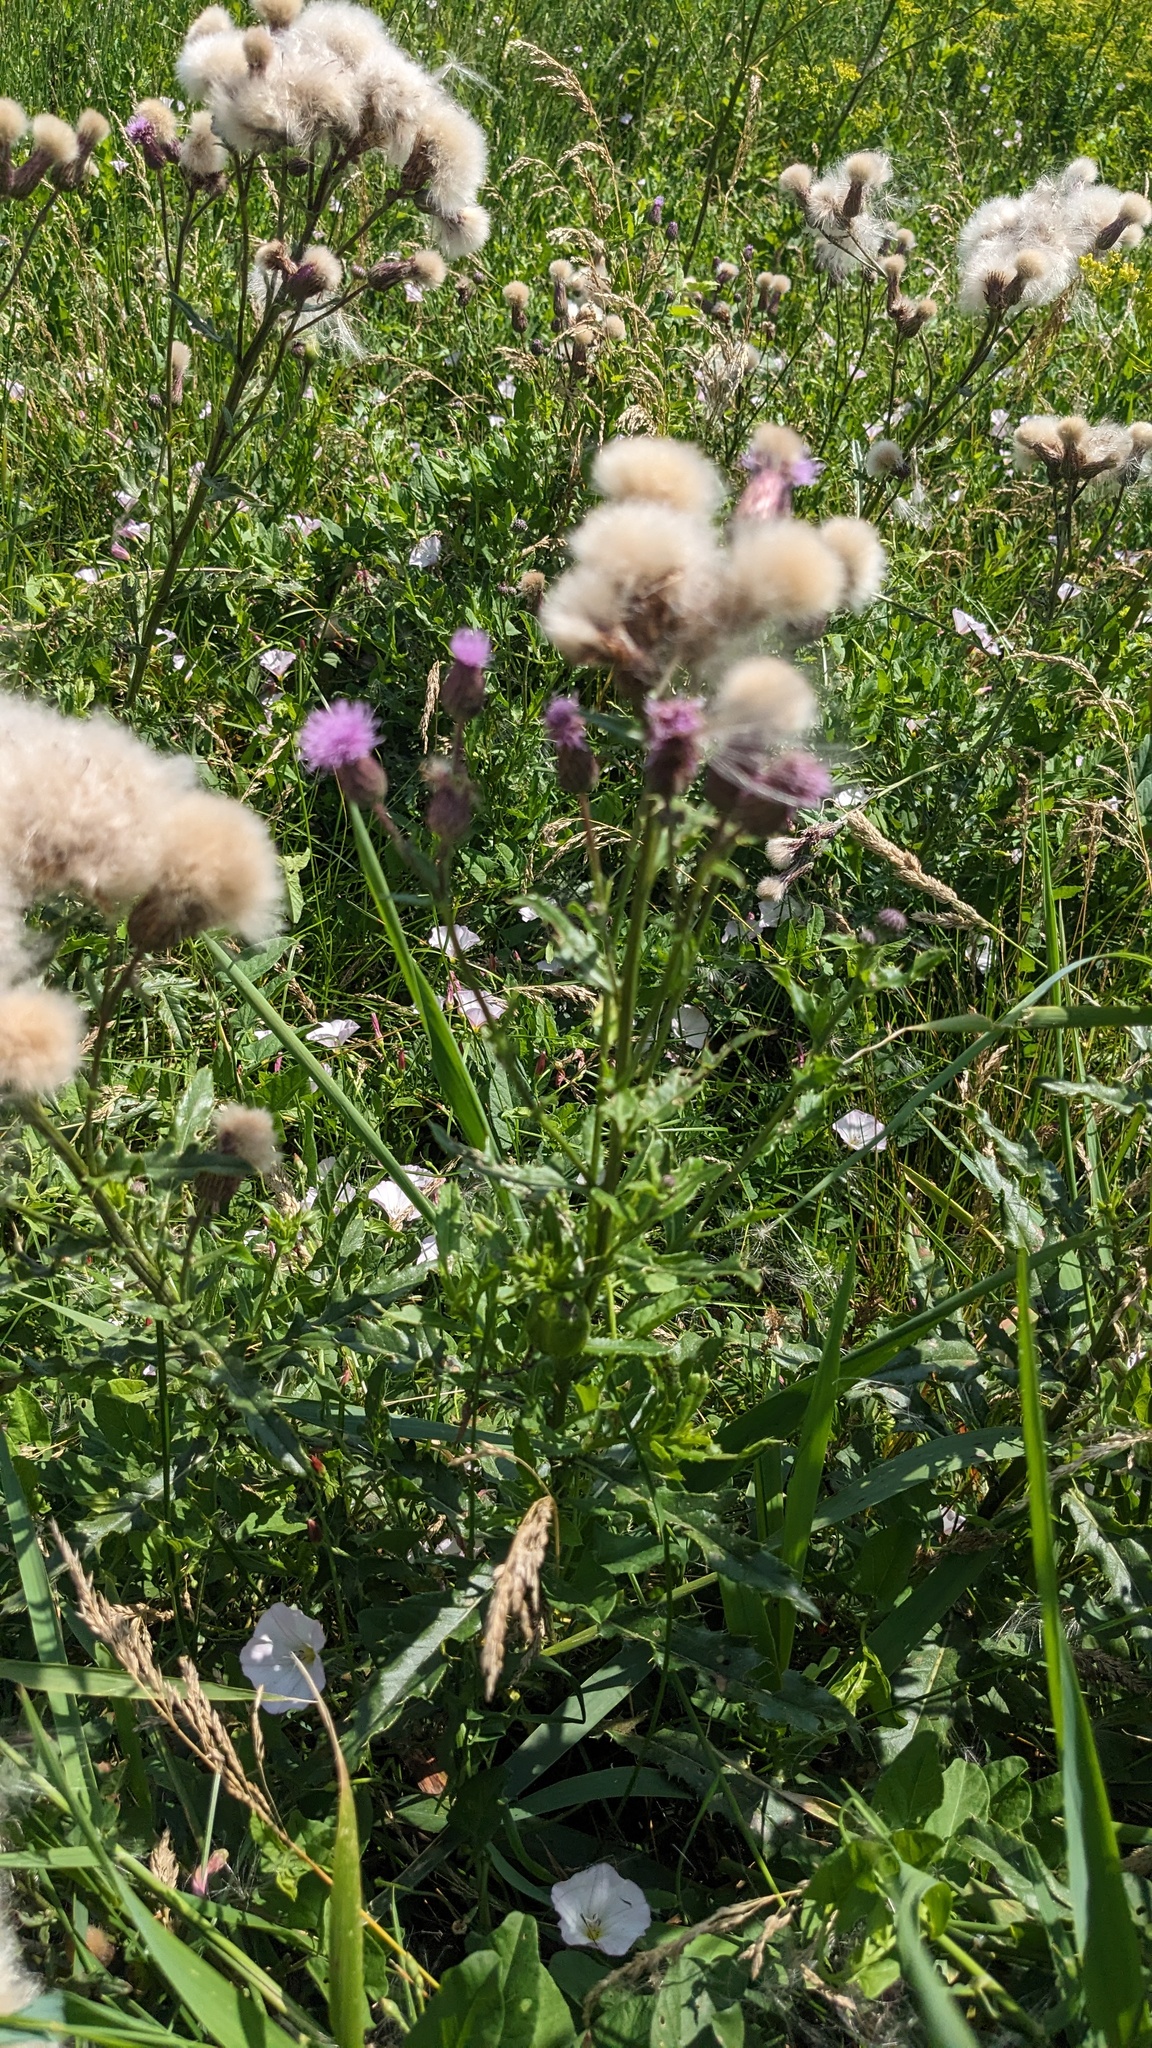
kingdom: Plantae
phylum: Tracheophyta
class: Magnoliopsida
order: Asterales
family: Asteraceae
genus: Cirsium
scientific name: Cirsium arvense
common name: Creeping thistle
